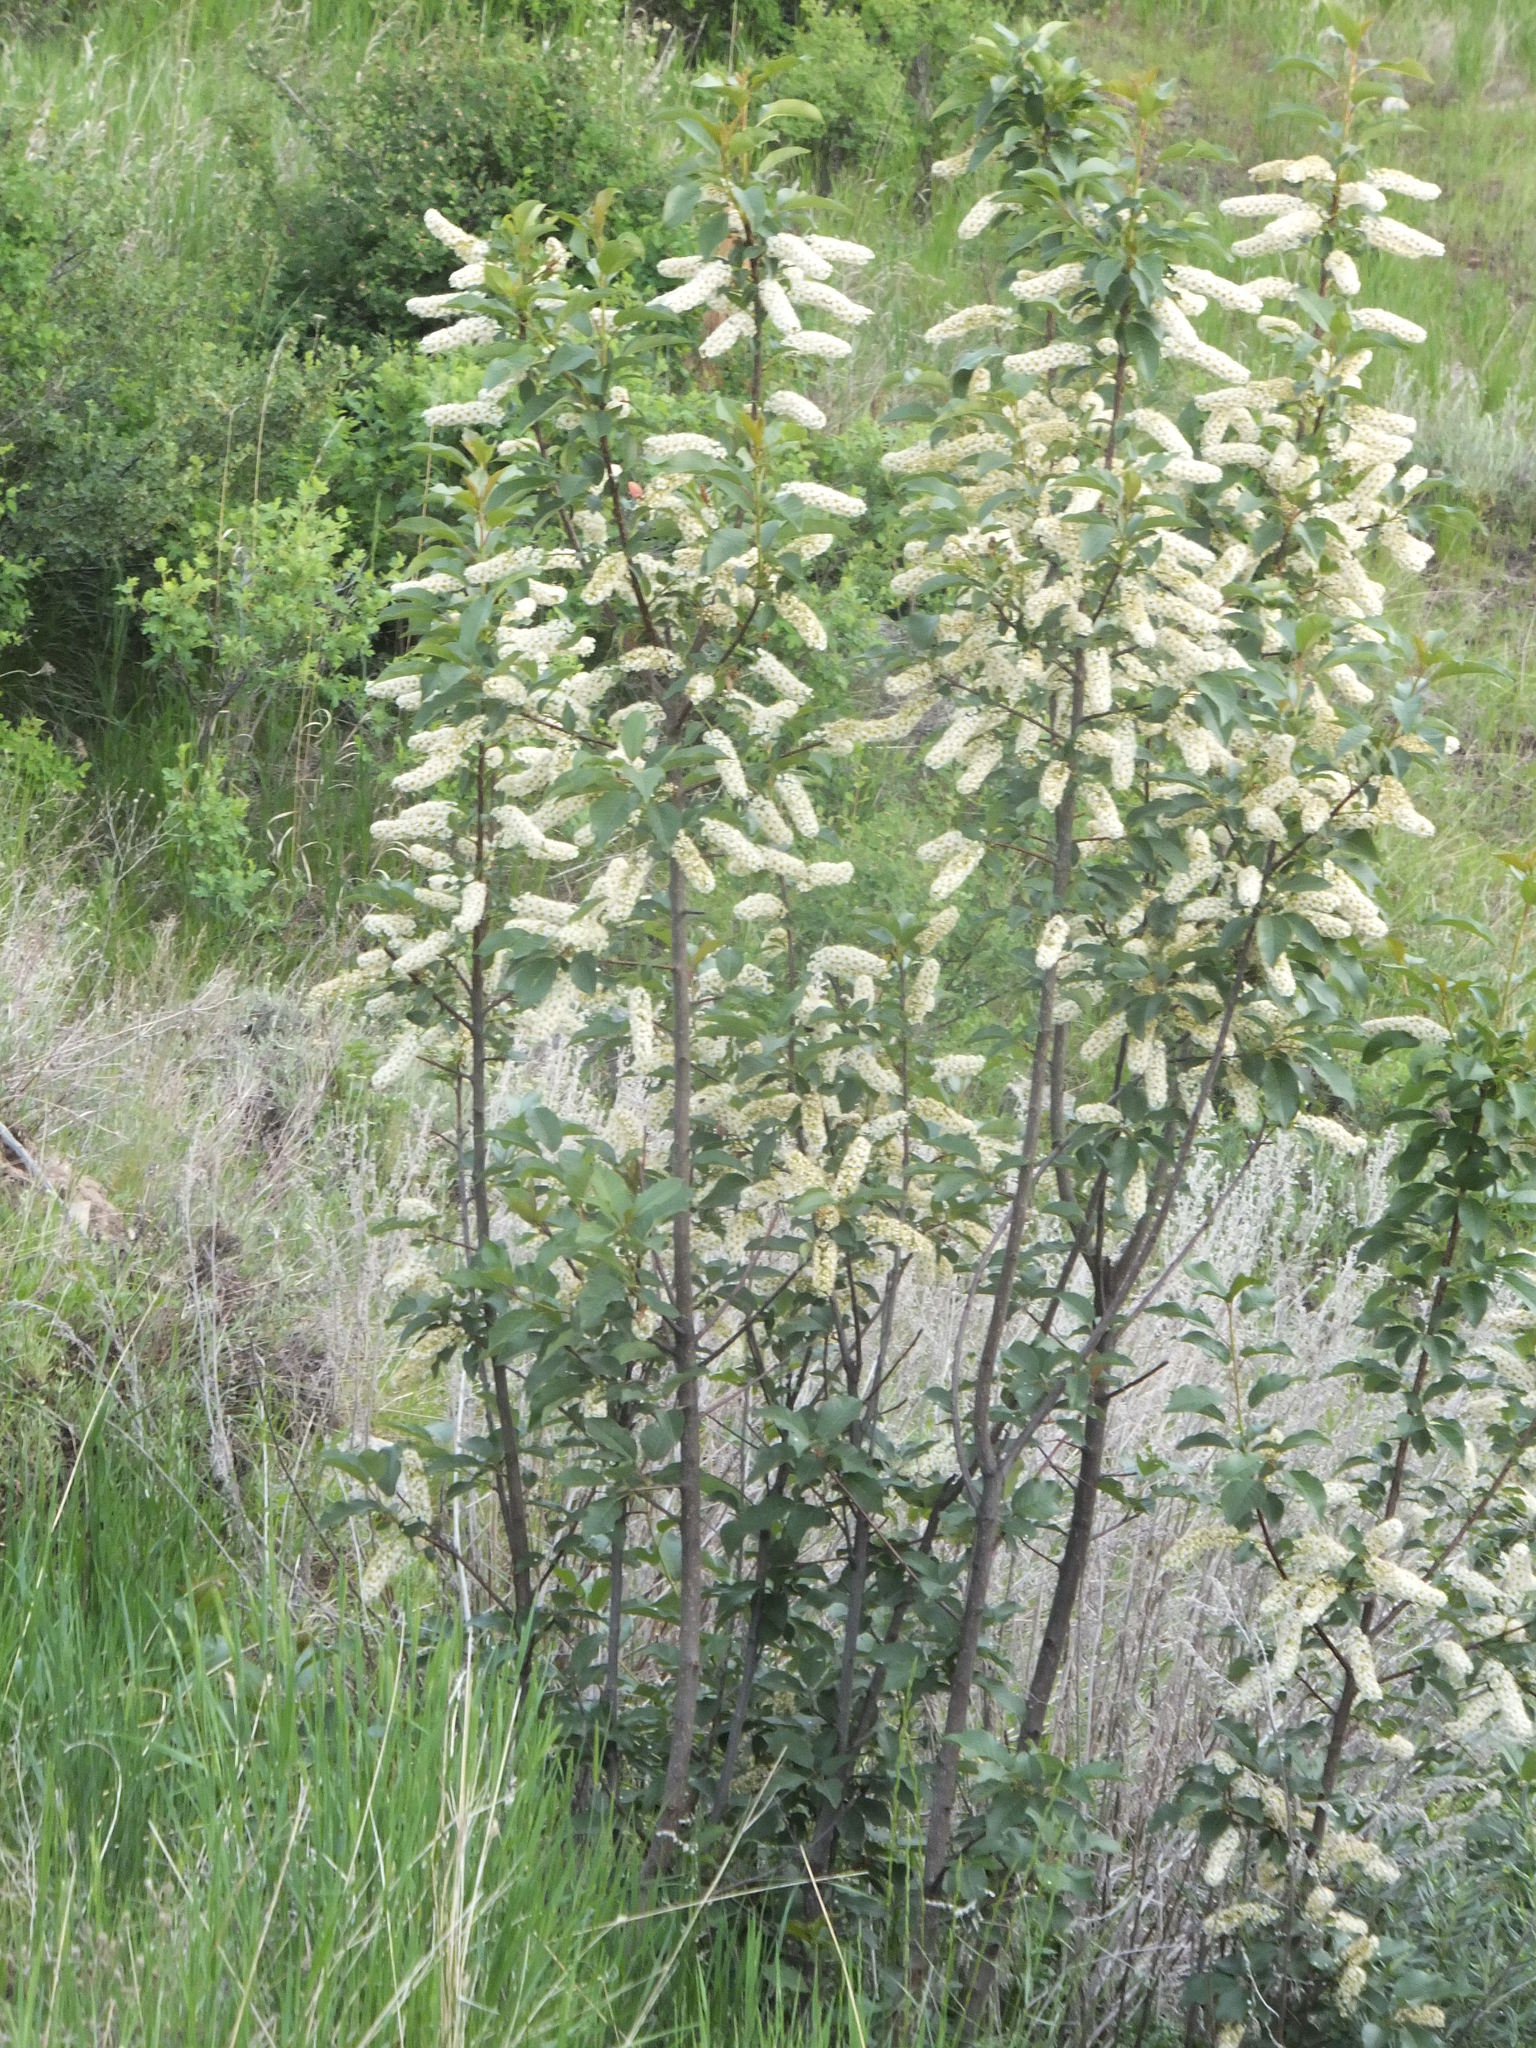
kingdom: Plantae
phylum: Tracheophyta
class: Magnoliopsida
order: Rosales
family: Rosaceae
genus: Prunus
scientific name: Prunus virginiana
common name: Chokecherry
